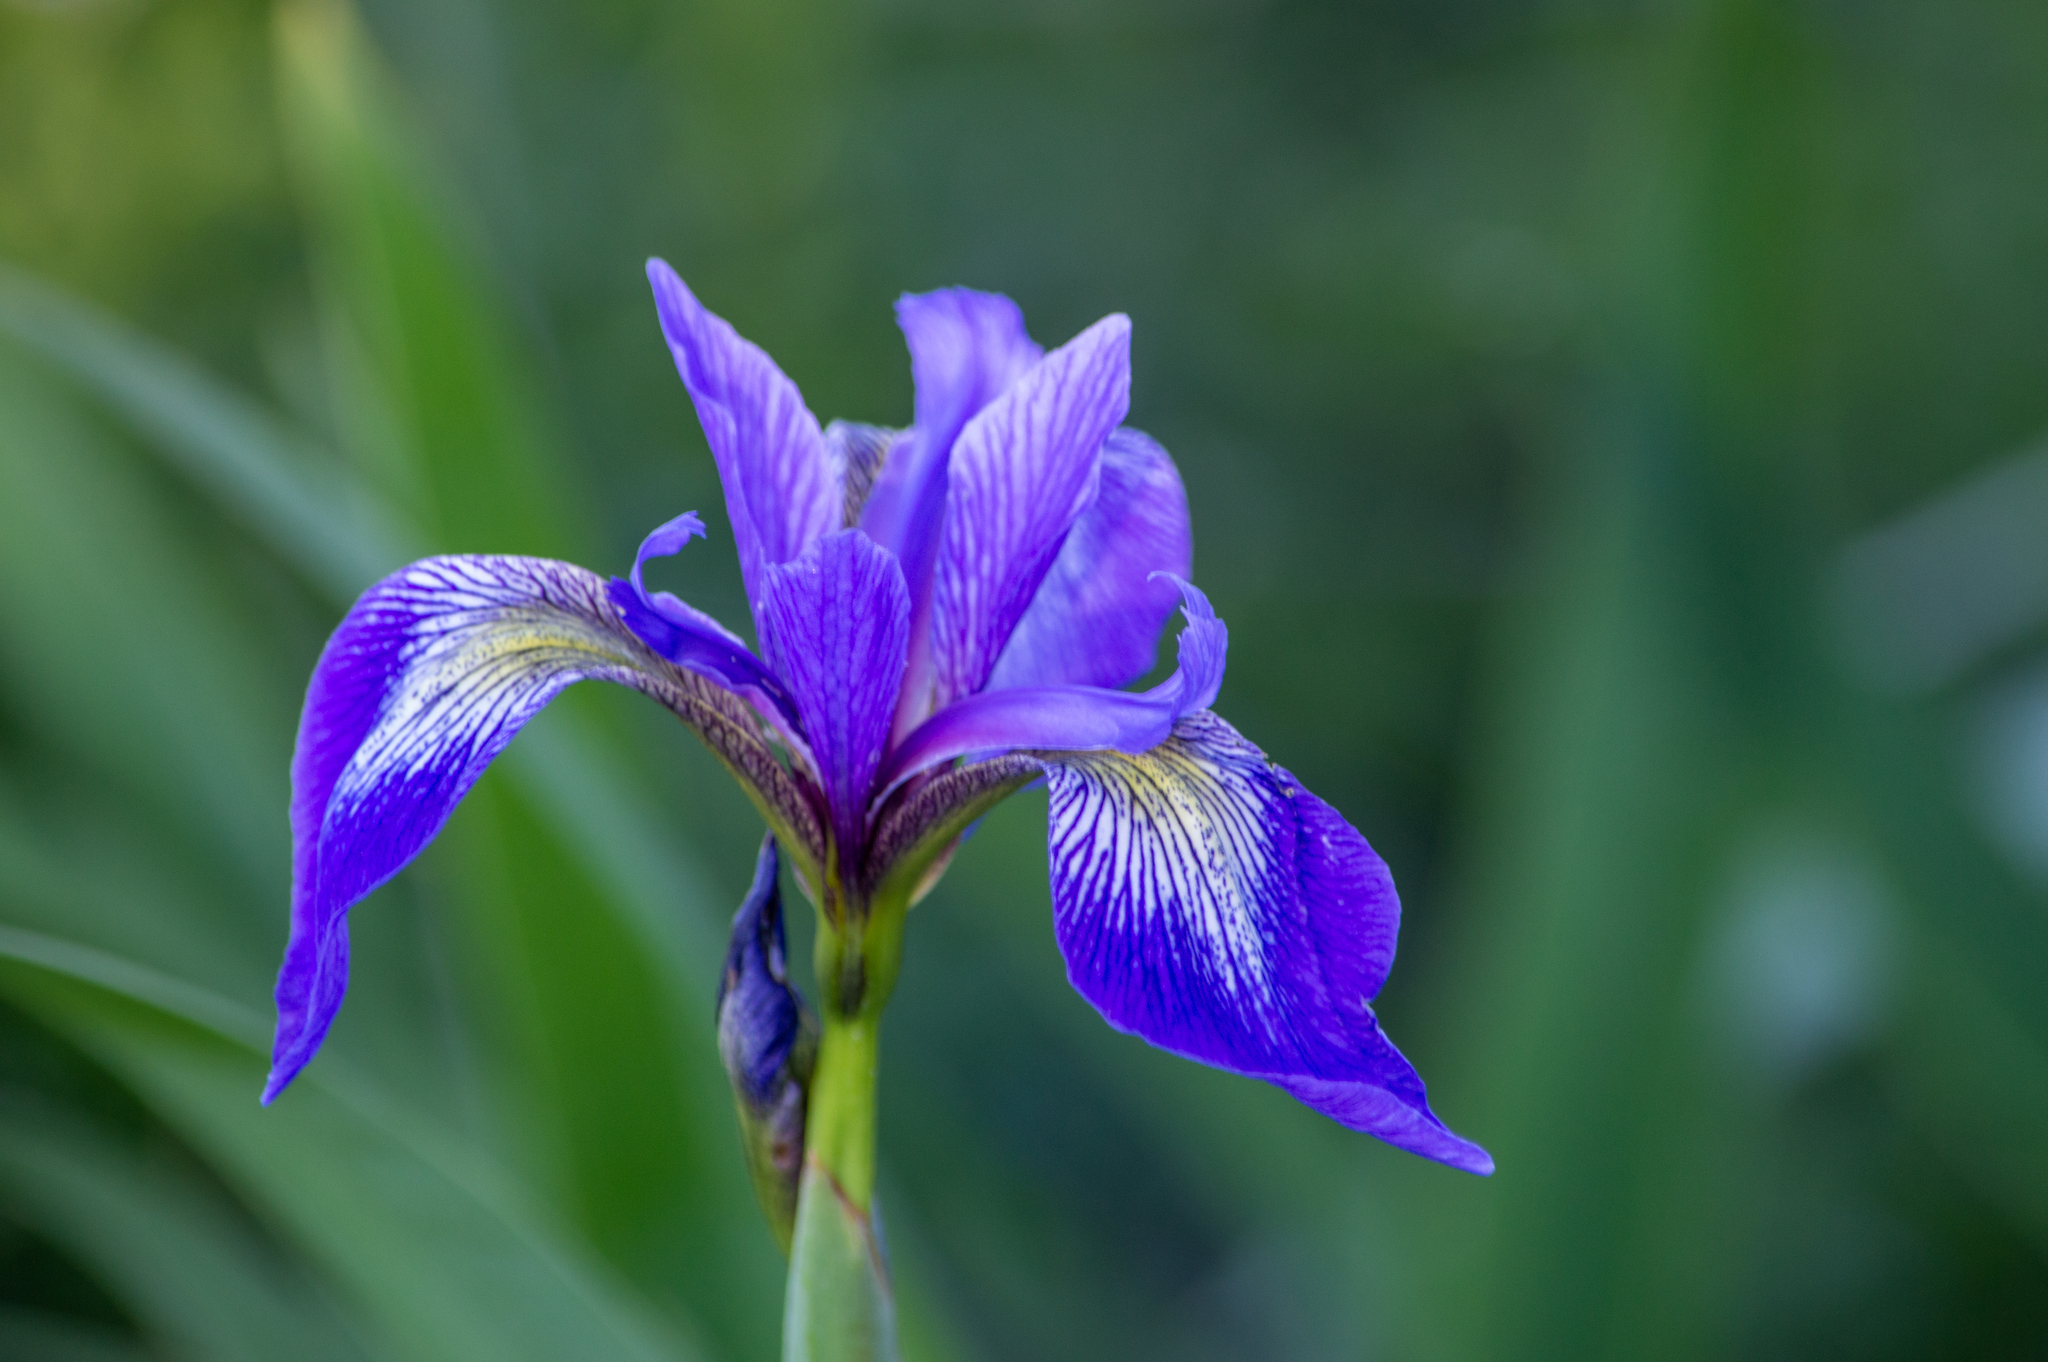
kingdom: Plantae
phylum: Tracheophyta
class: Liliopsida
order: Asparagales
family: Iridaceae
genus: Iris
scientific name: Iris versicolor
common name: Purple iris
